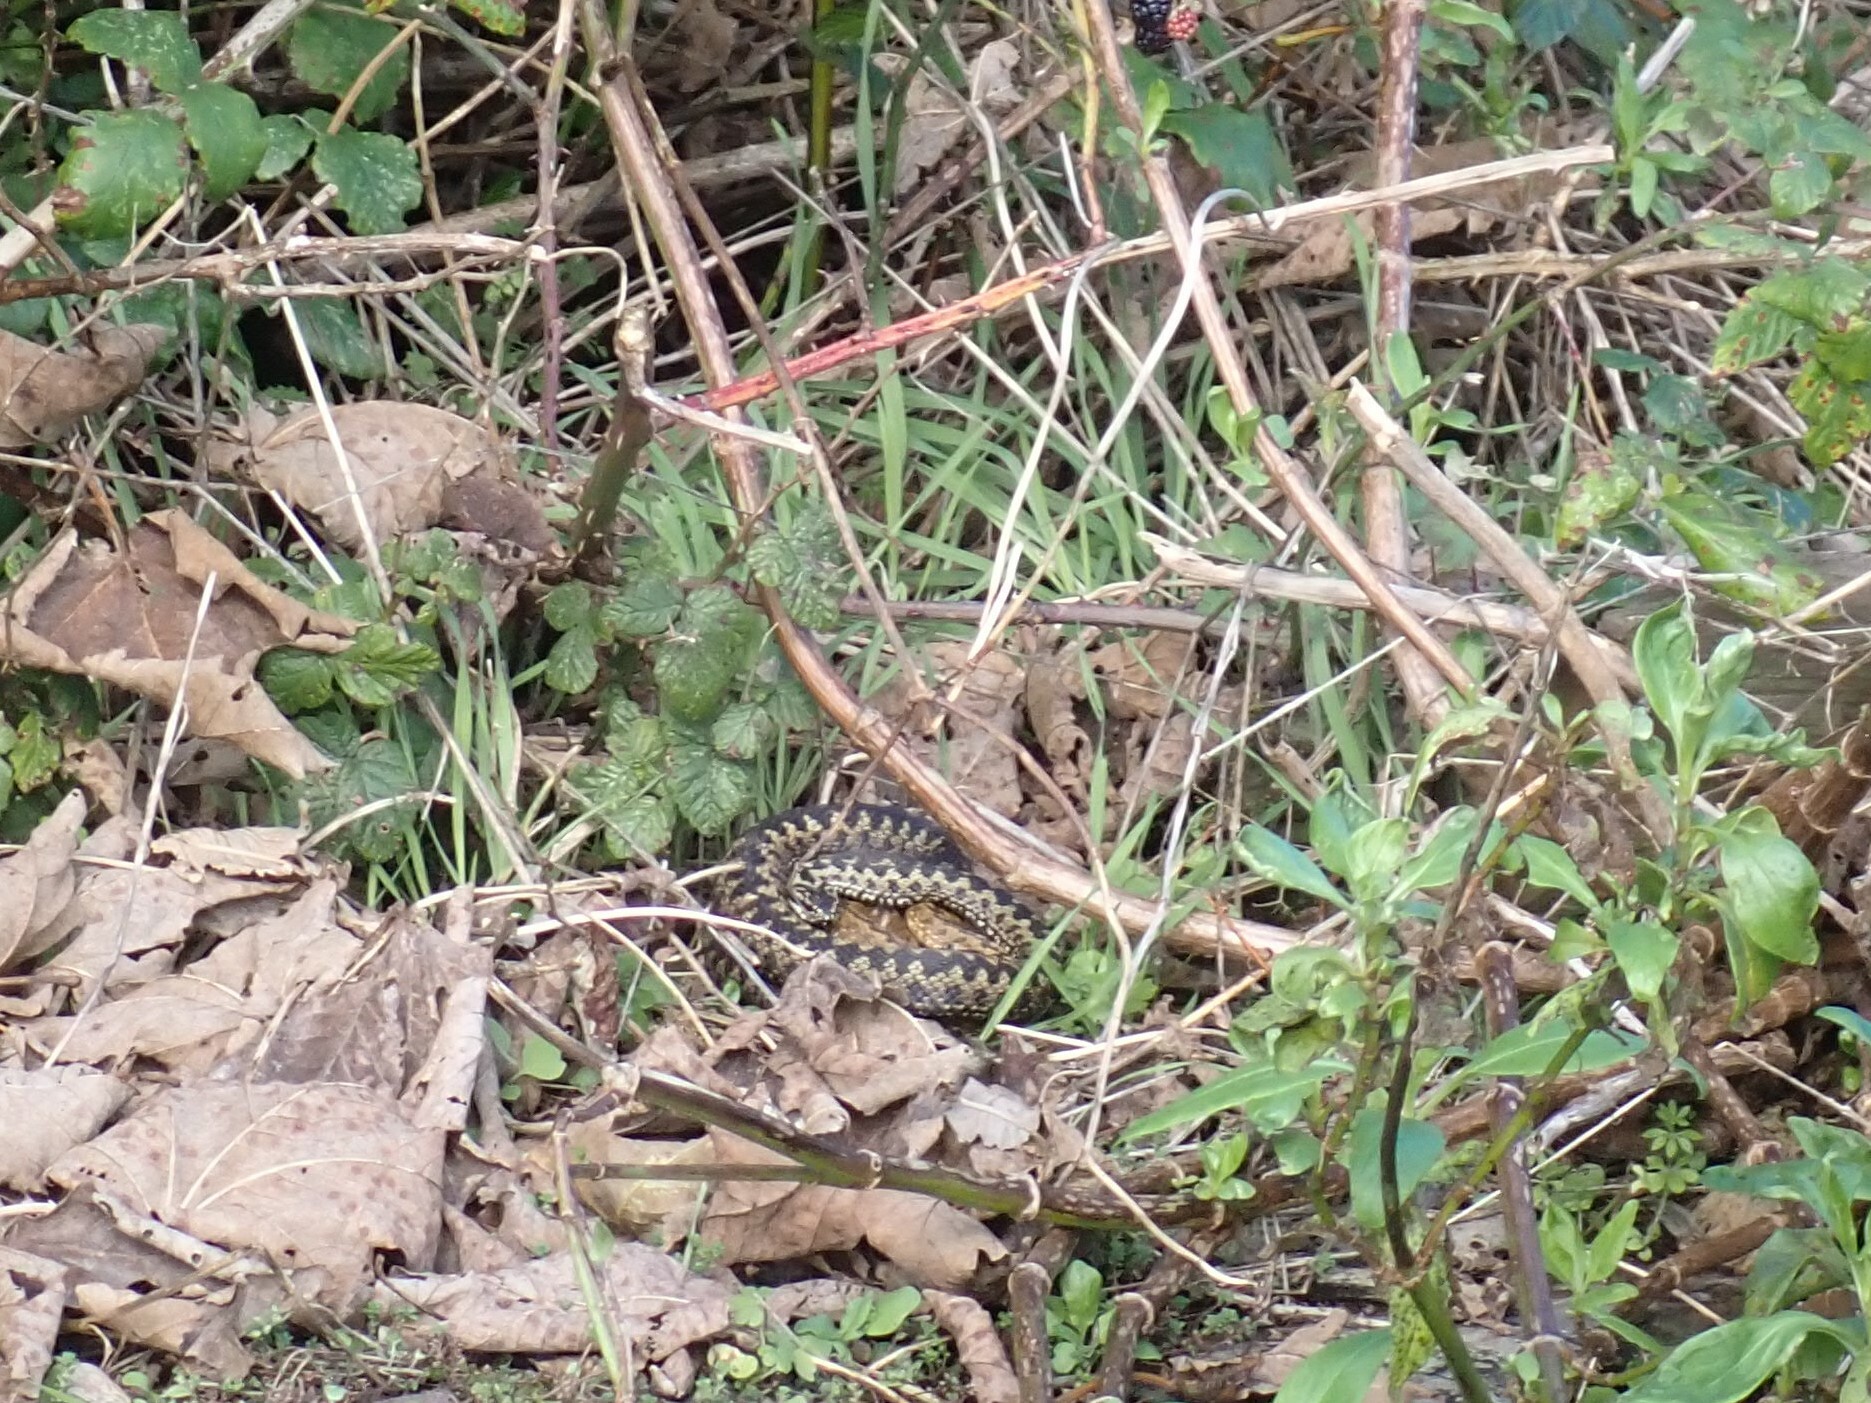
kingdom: Animalia
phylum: Chordata
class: Squamata
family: Viperidae
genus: Vipera
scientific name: Vipera berus
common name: Adder
